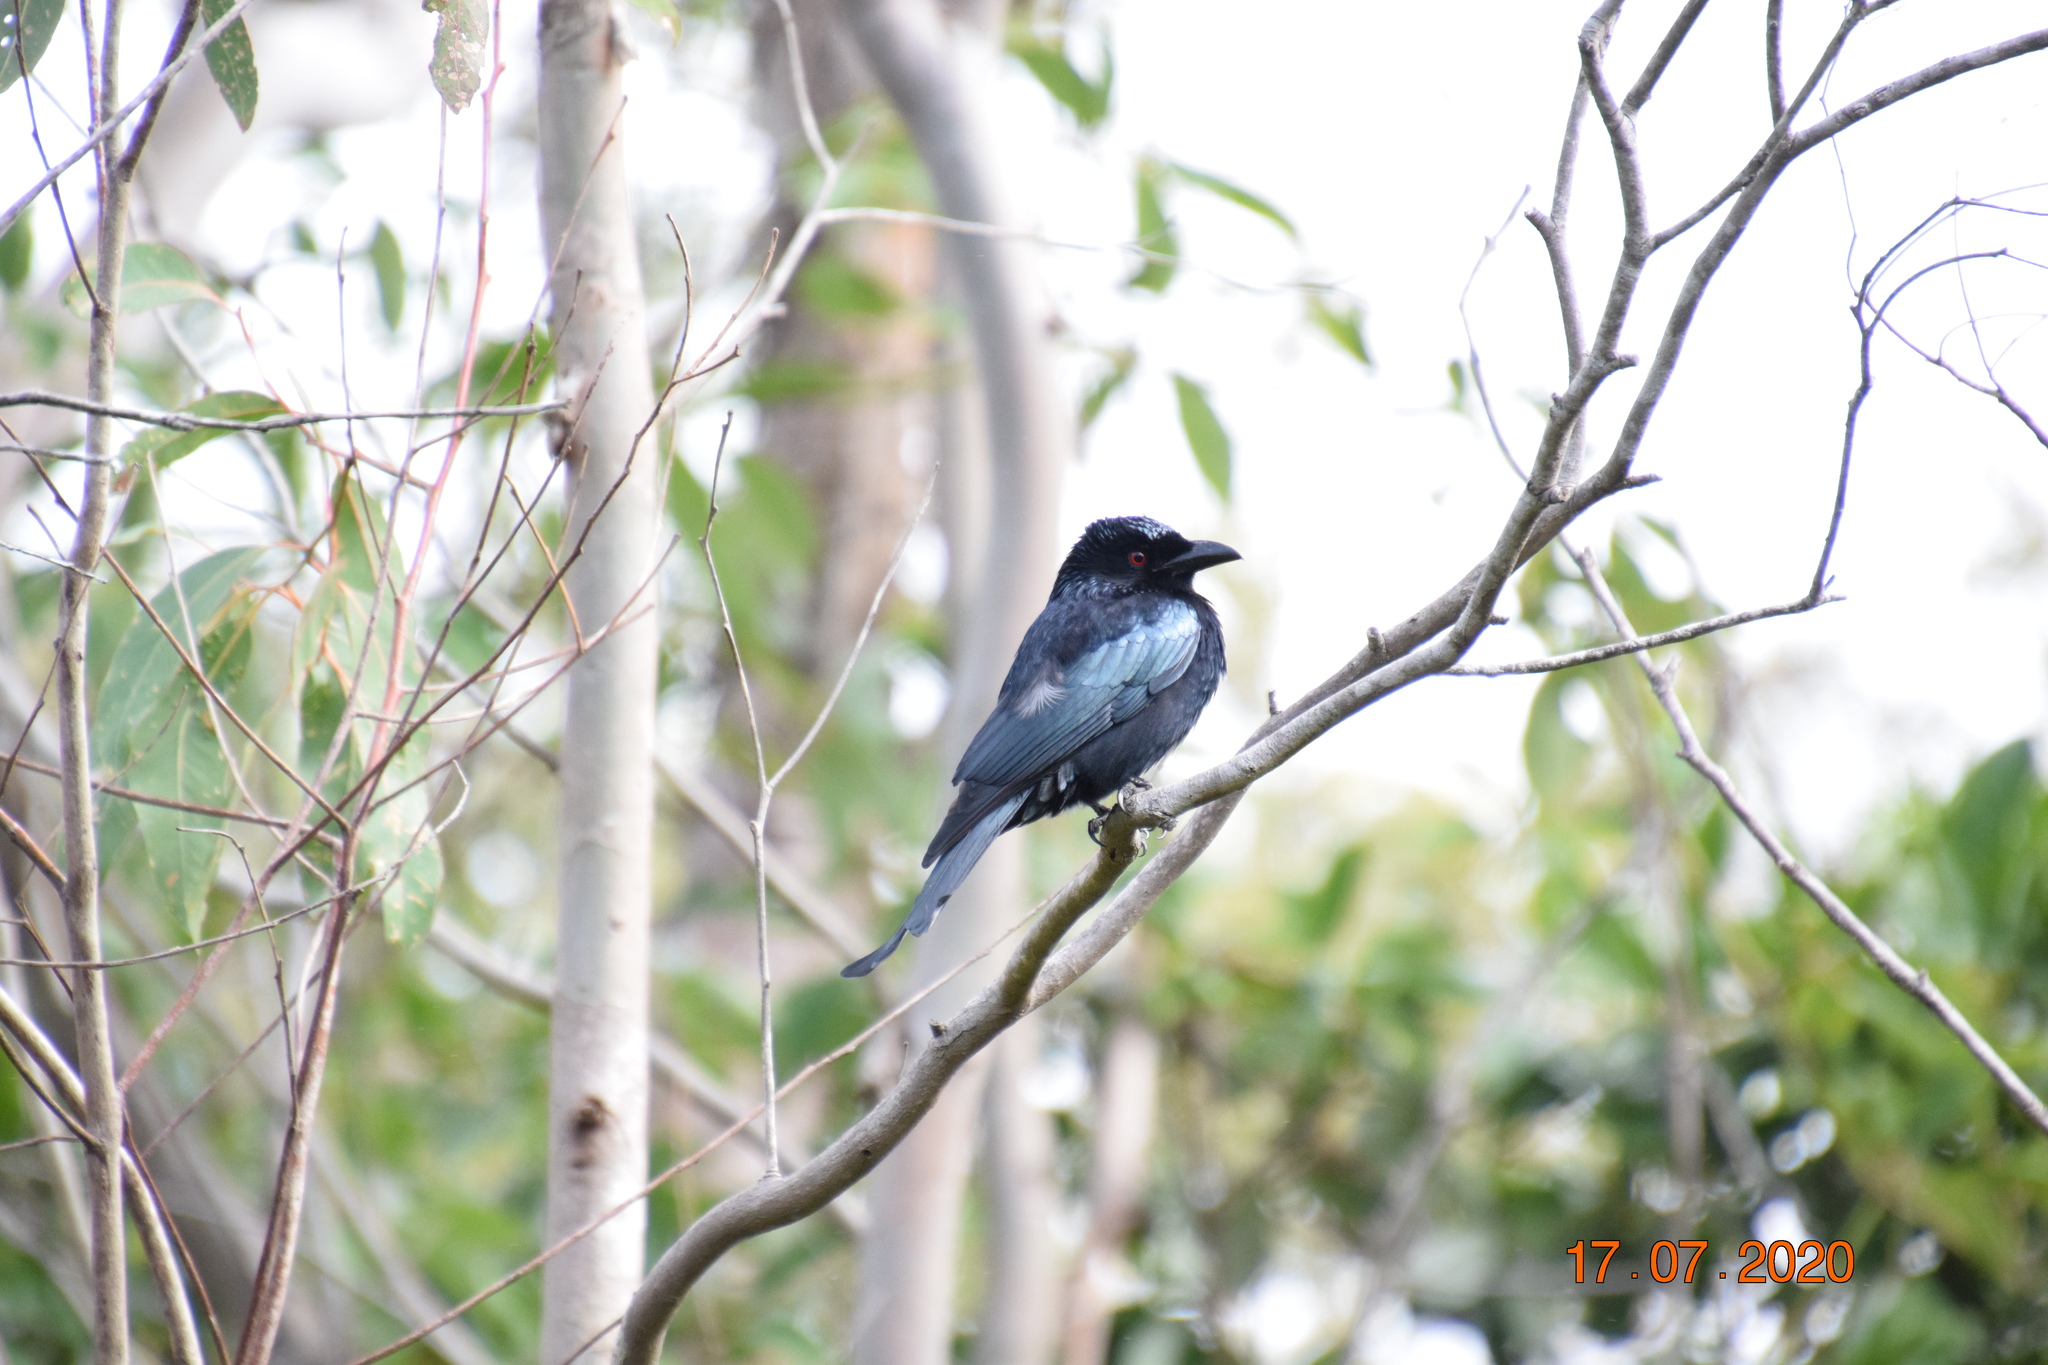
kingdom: Animalia
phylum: Chordata
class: Aves
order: Passeriformes
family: Dicruridae
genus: Dicrurus
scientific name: Dicrurus bracteatus
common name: Spangled drongo
